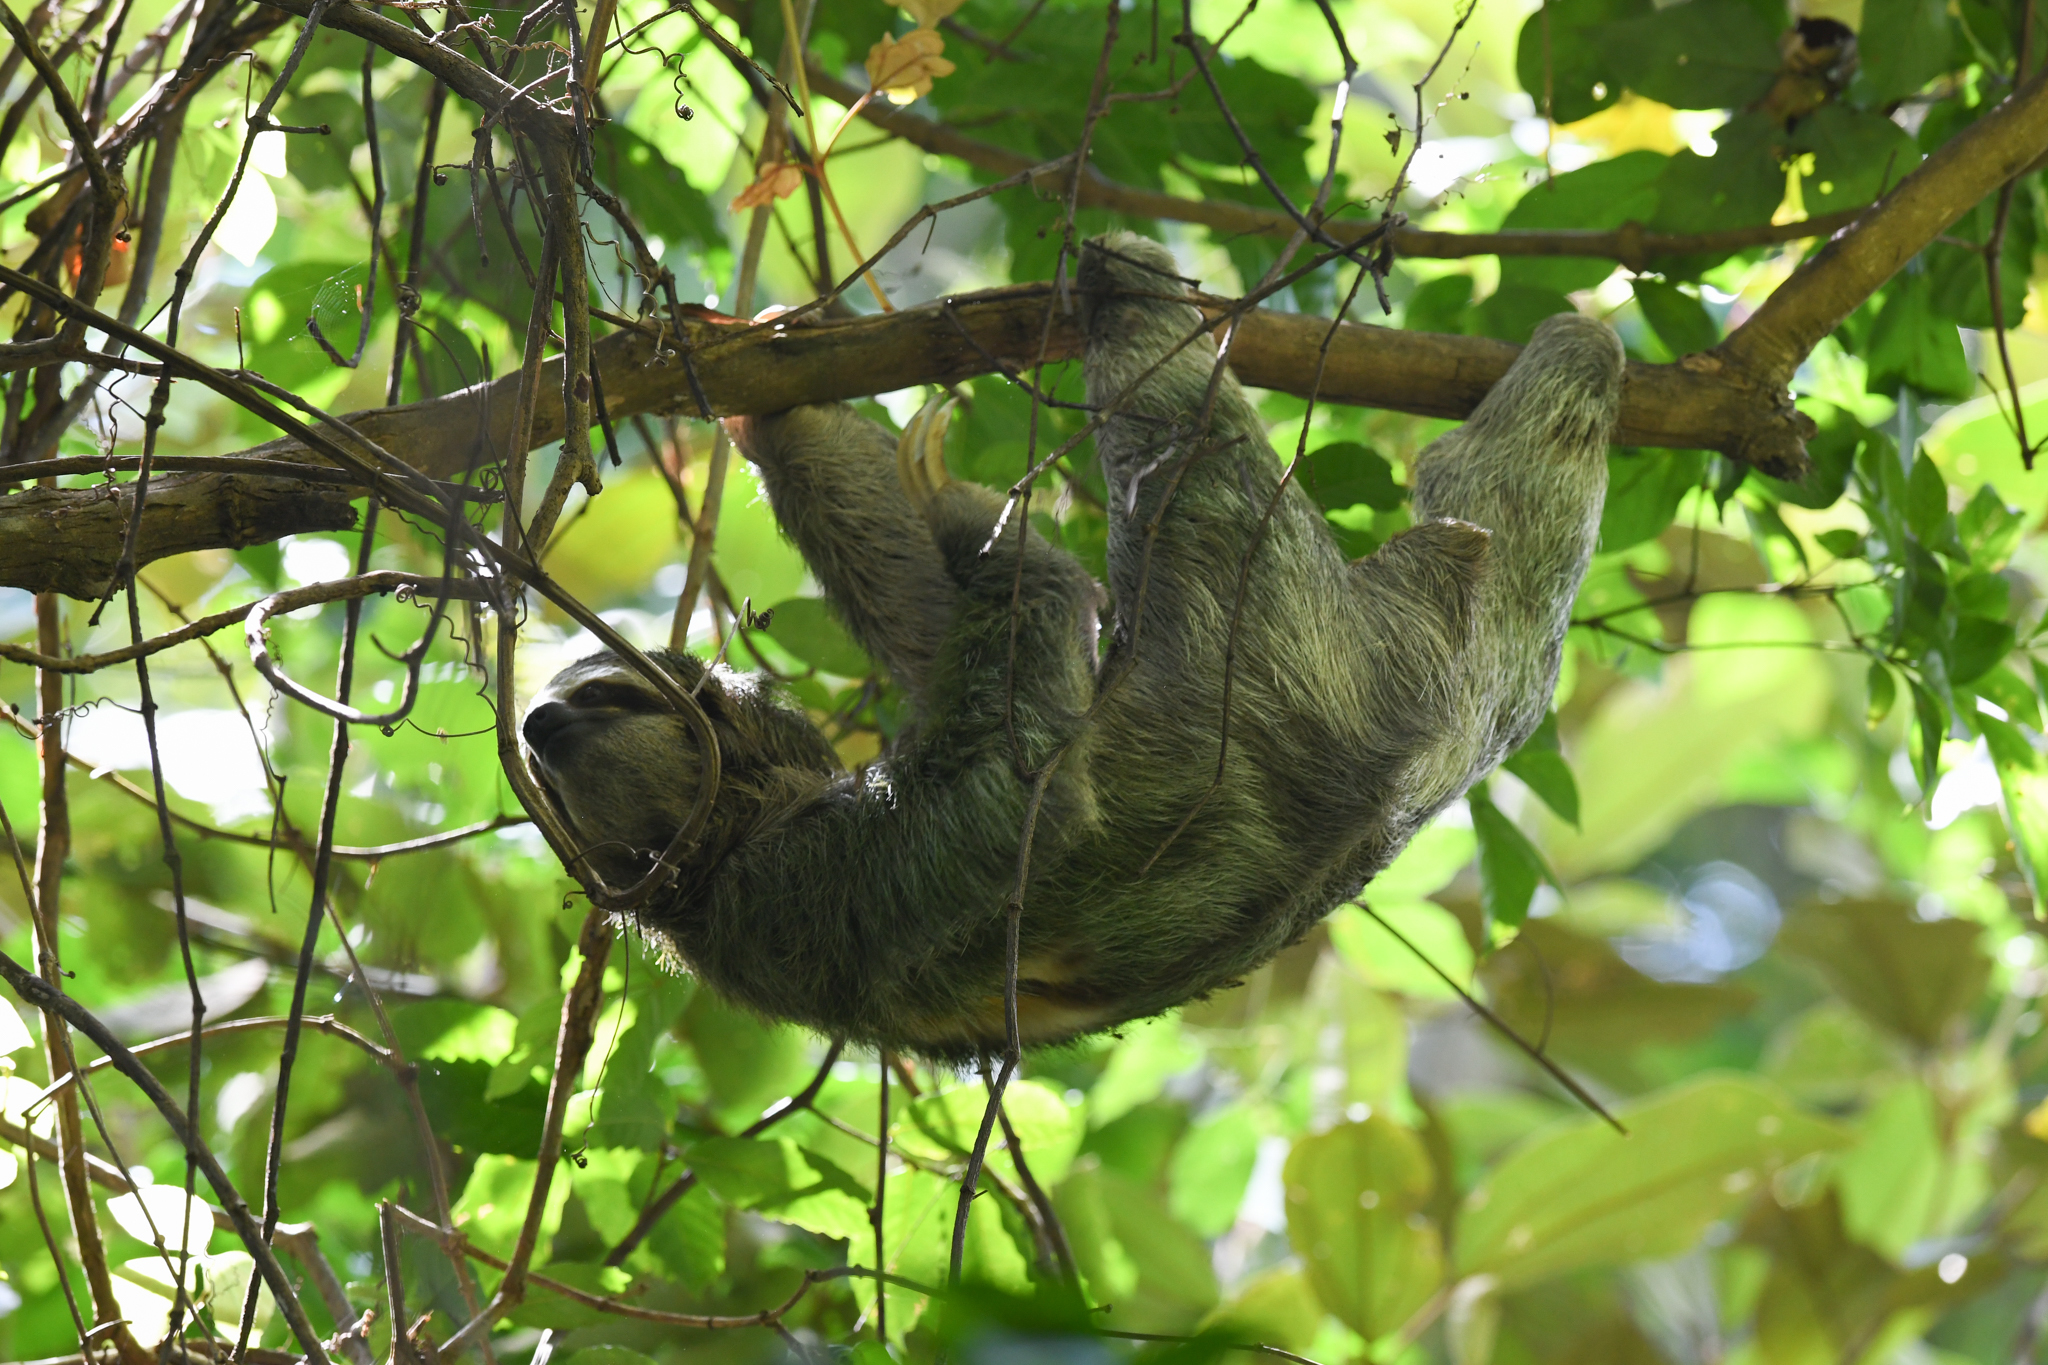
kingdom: Animalia
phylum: Chordata
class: Mammalia
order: Pilosa
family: Bradypodidae
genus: Bradypus
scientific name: Bradypus variegatus
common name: Brown-throated three-toed sloth
